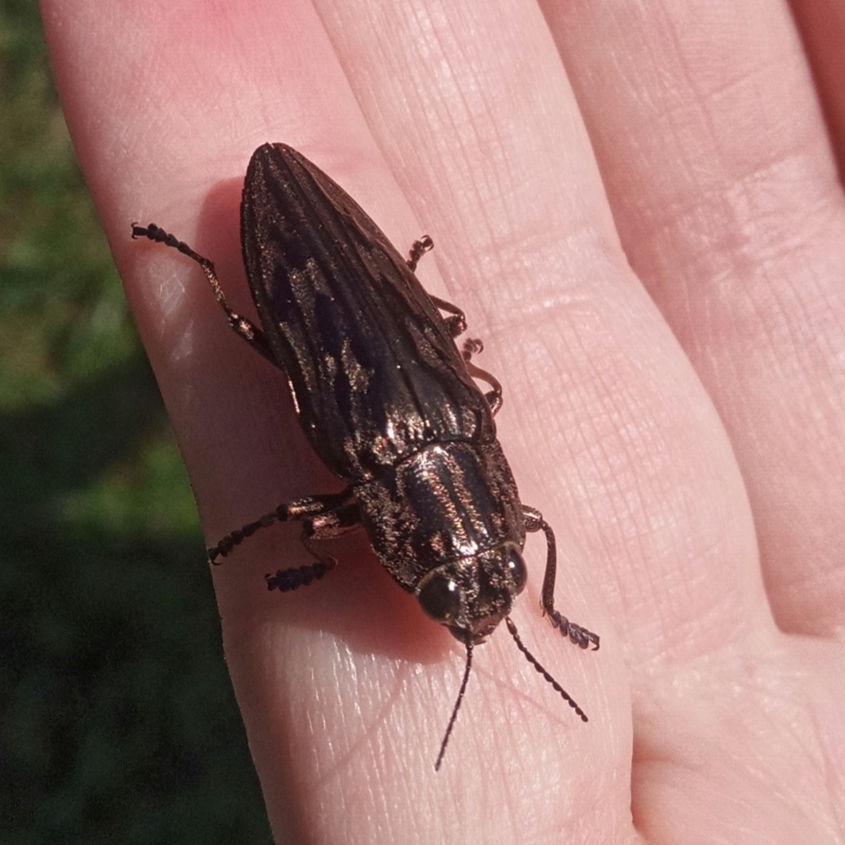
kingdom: Animalia
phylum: Arthropoda
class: Insecta
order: Coleoptera
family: Buprestidae
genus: Chalcophora
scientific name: Chalcophora virginiensis
